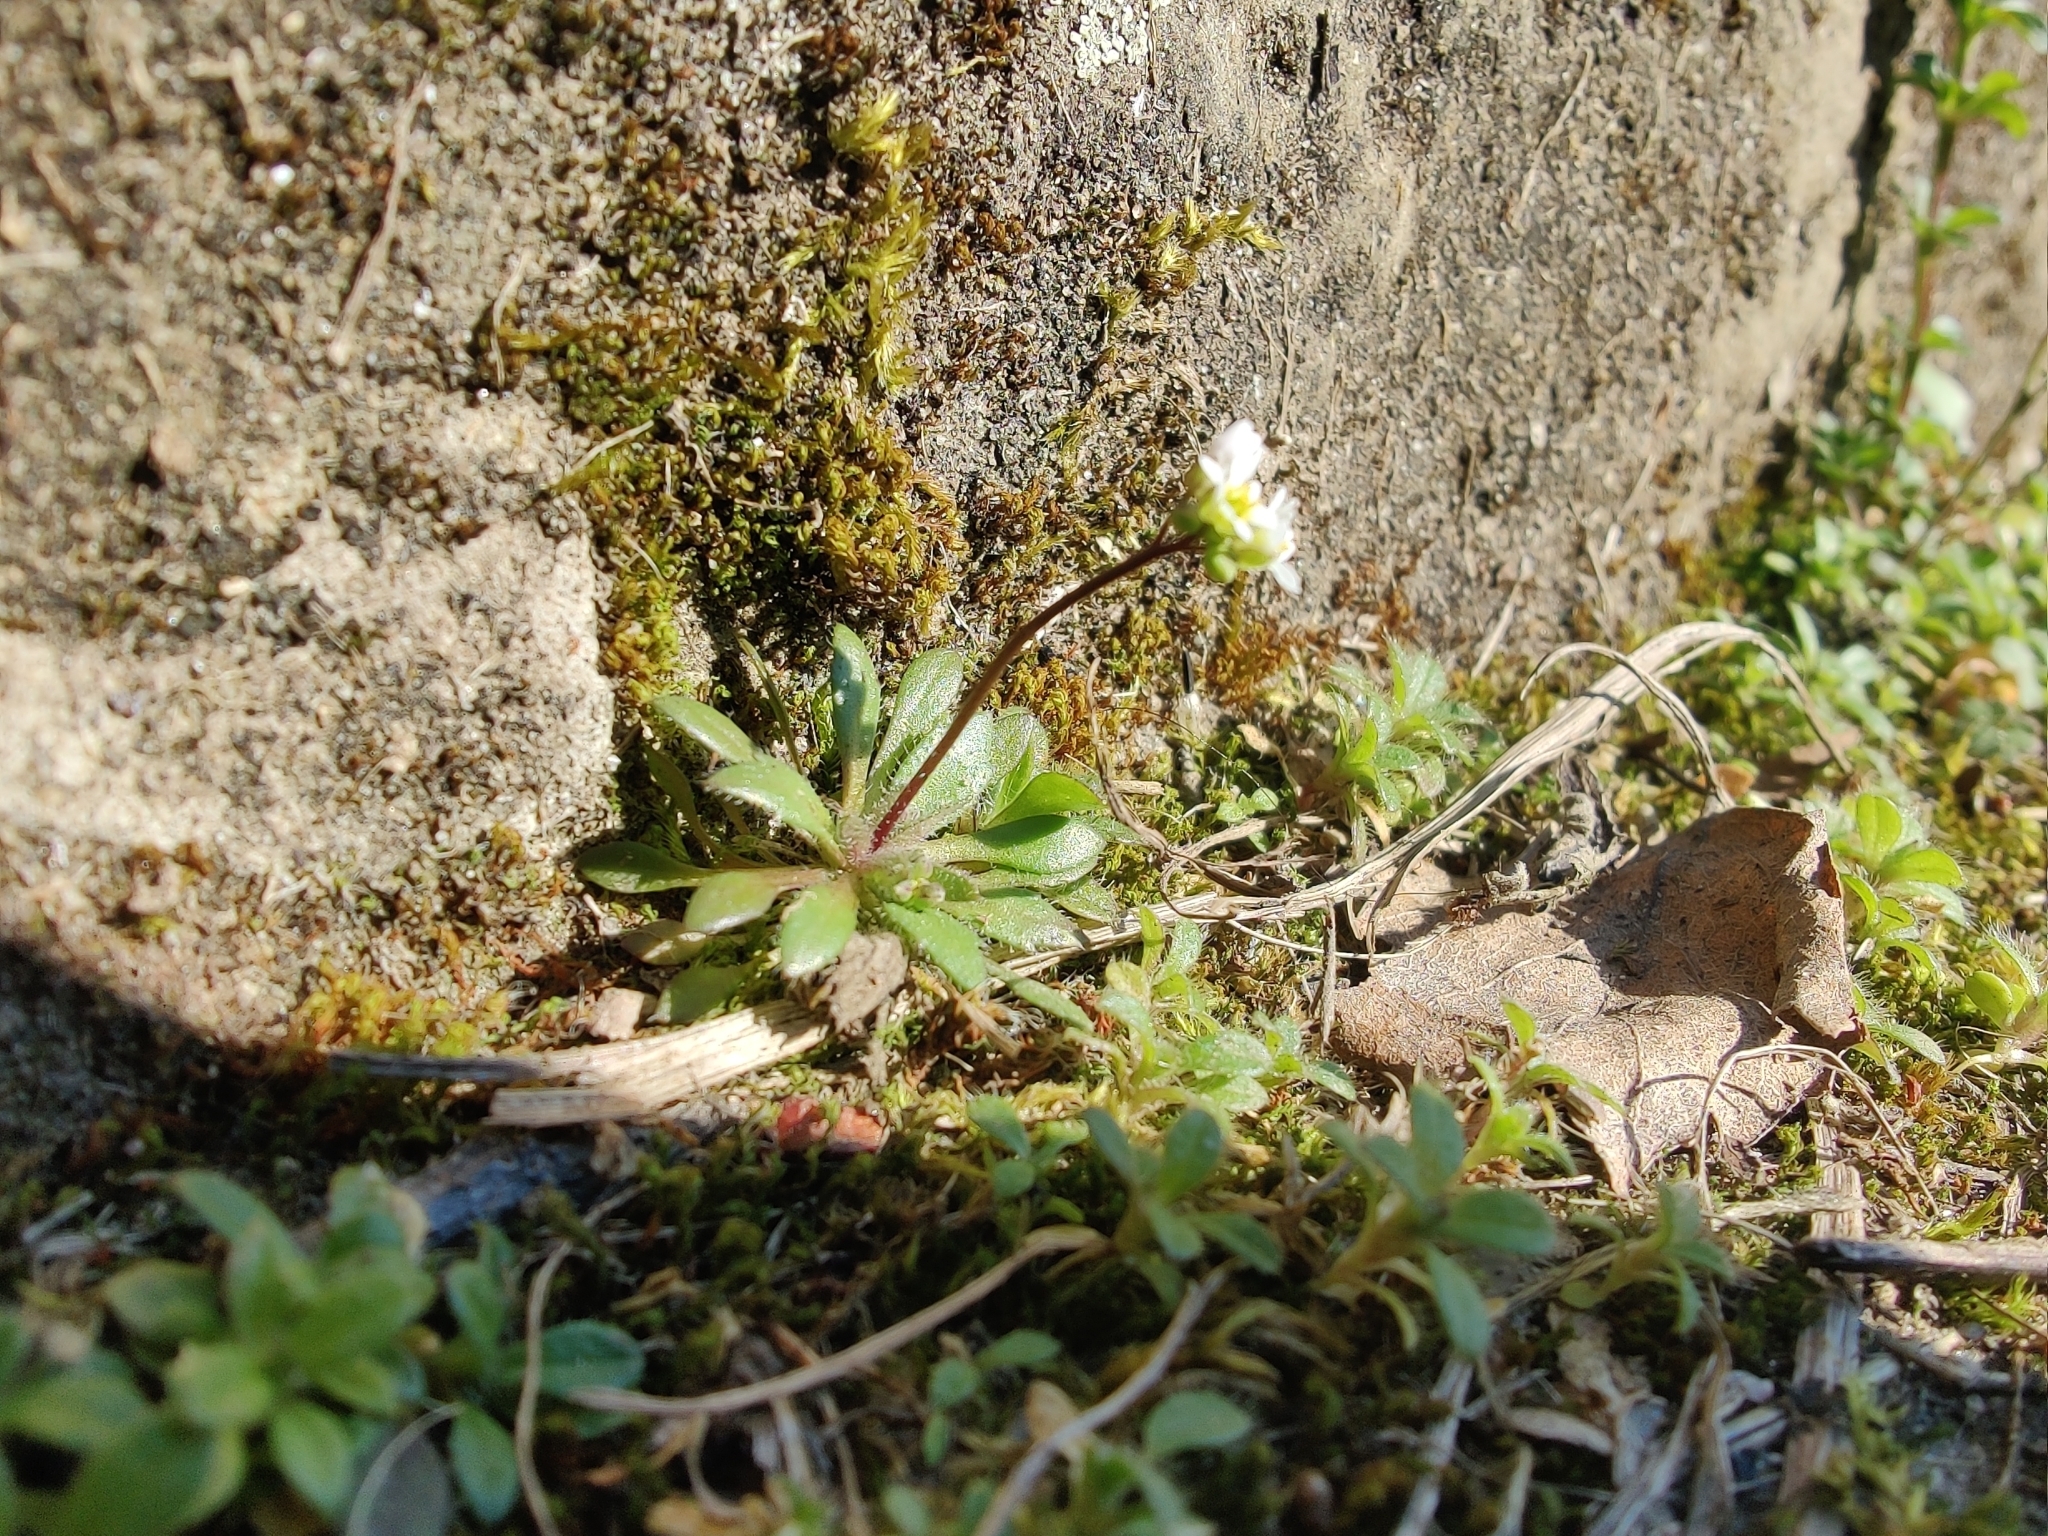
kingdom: Plantae
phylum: Tracheophyta
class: Magnoliopsida
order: Brassicales
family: Brassicaceae
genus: Draba
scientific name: Draba verna
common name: Spring draba
